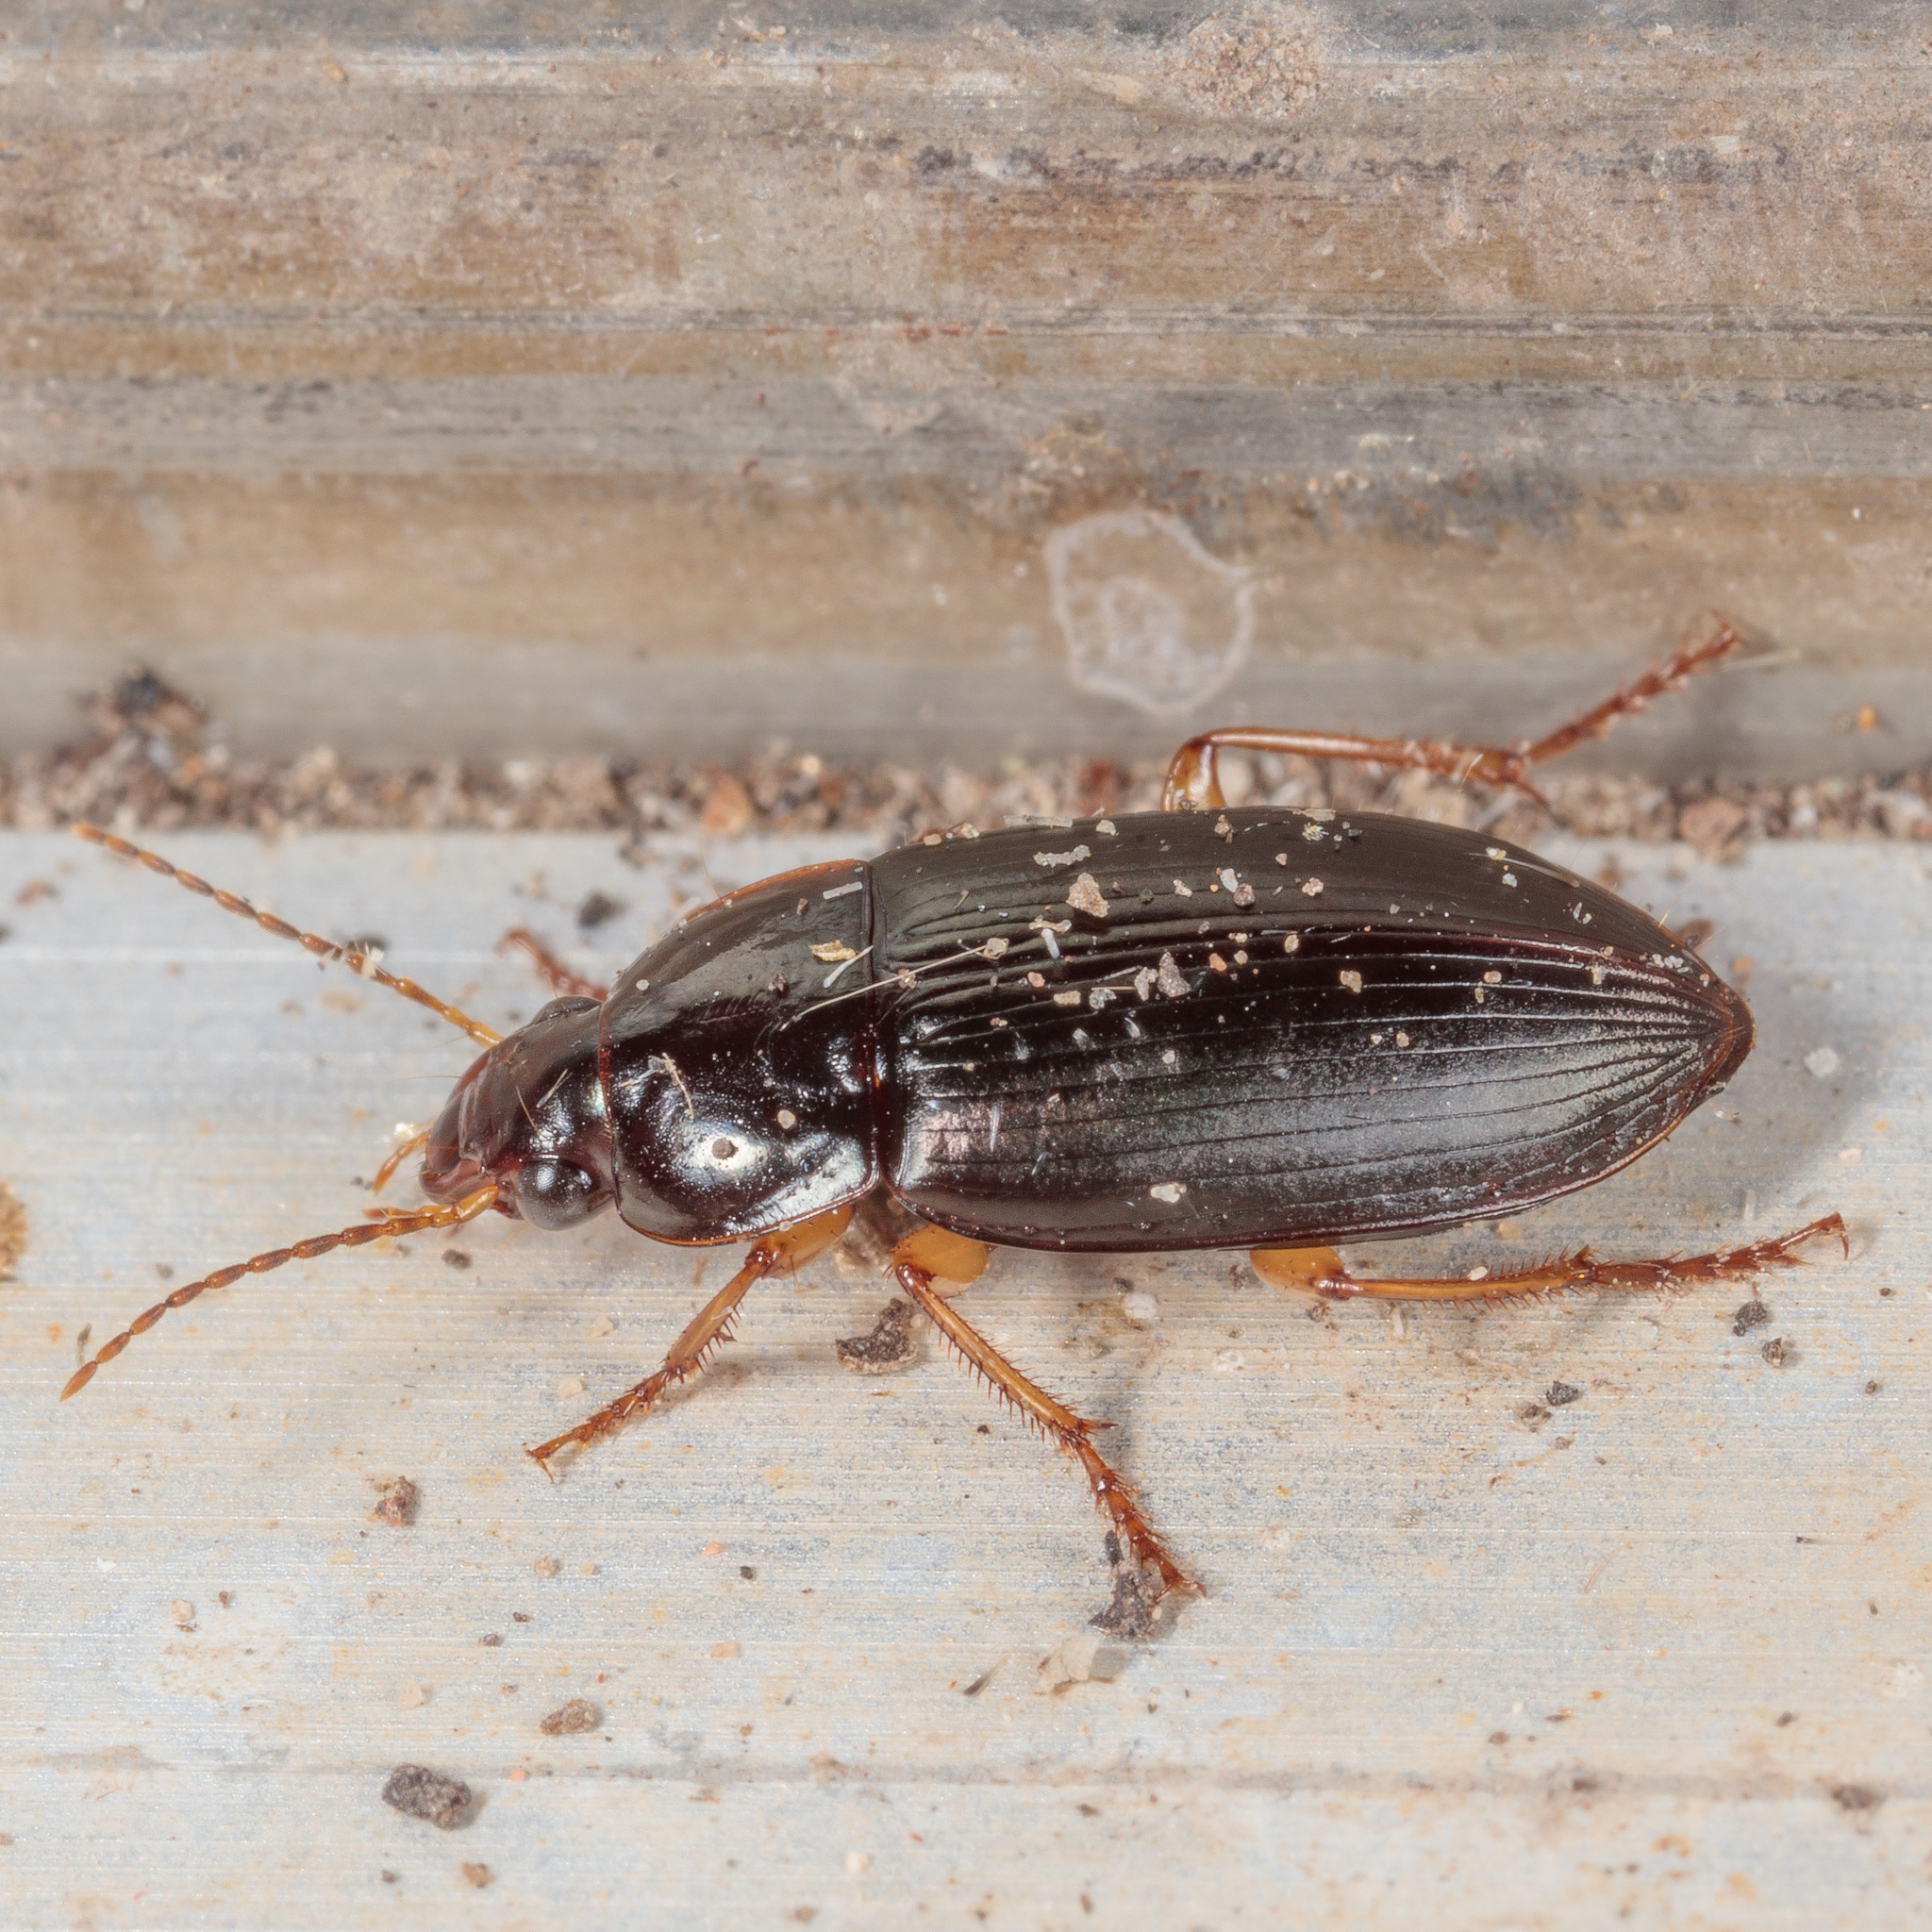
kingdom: Animalia
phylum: Arthropoda
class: Insecta
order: Coleoptera
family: Carabidae
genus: Notiobia
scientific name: Notiobia terminata
